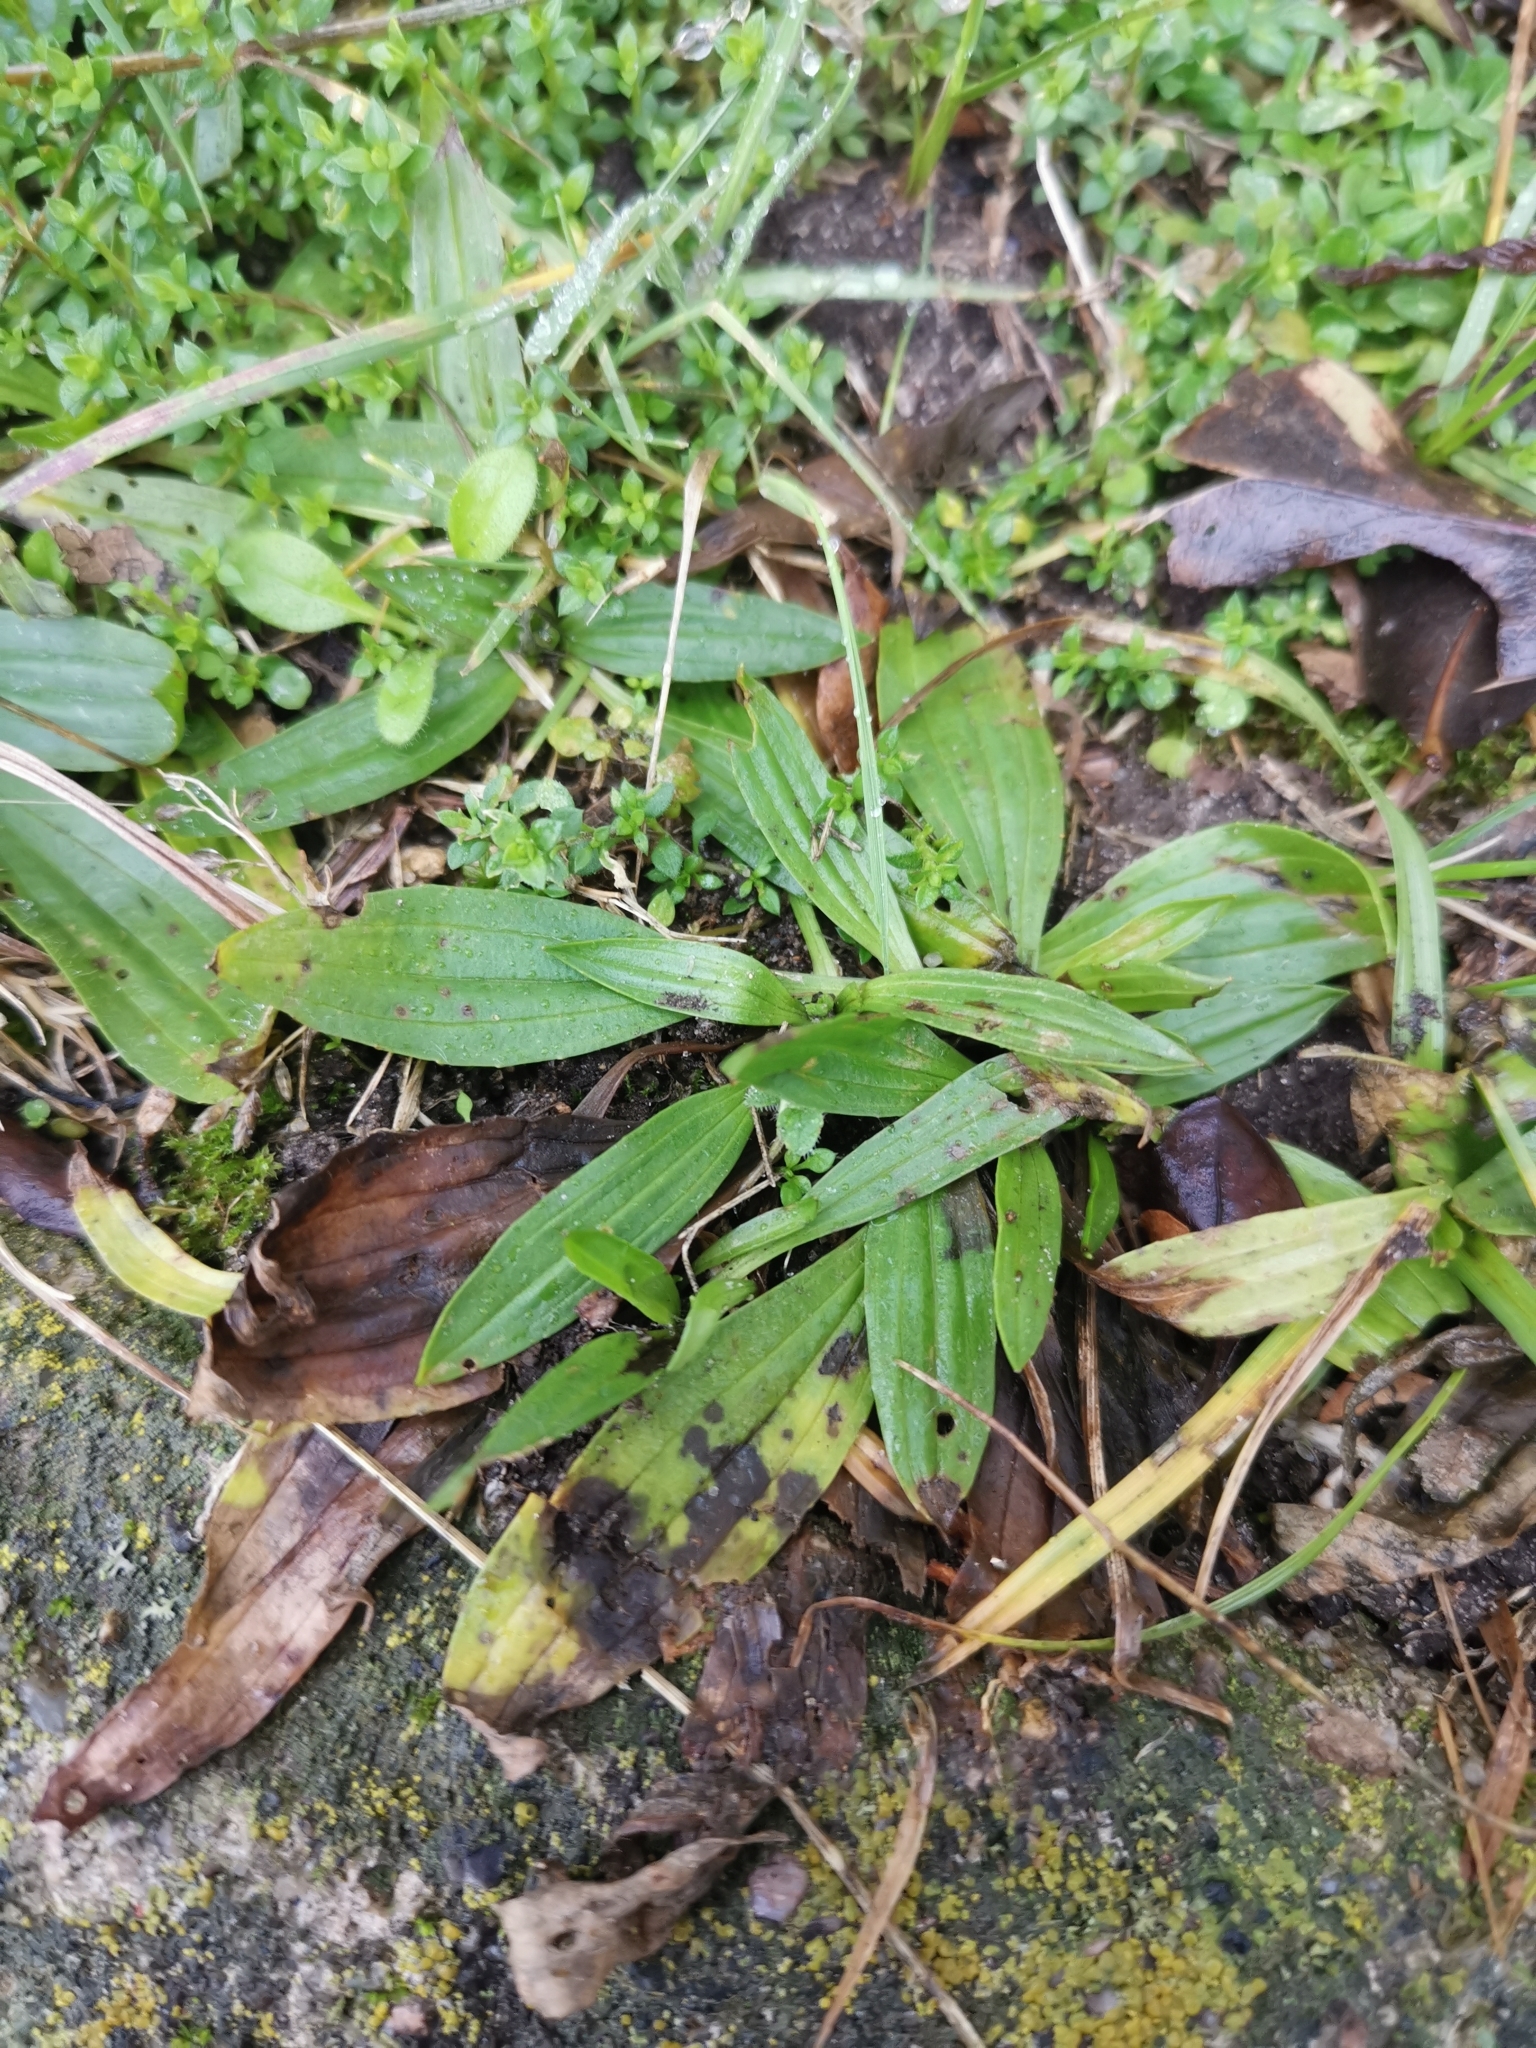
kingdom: Plantae
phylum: Tracheophyta
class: Magnoliopsida
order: Lamiales
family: Plantaginaceae
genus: Plantago
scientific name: Plantago lanceolata
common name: Ribwort plantain
